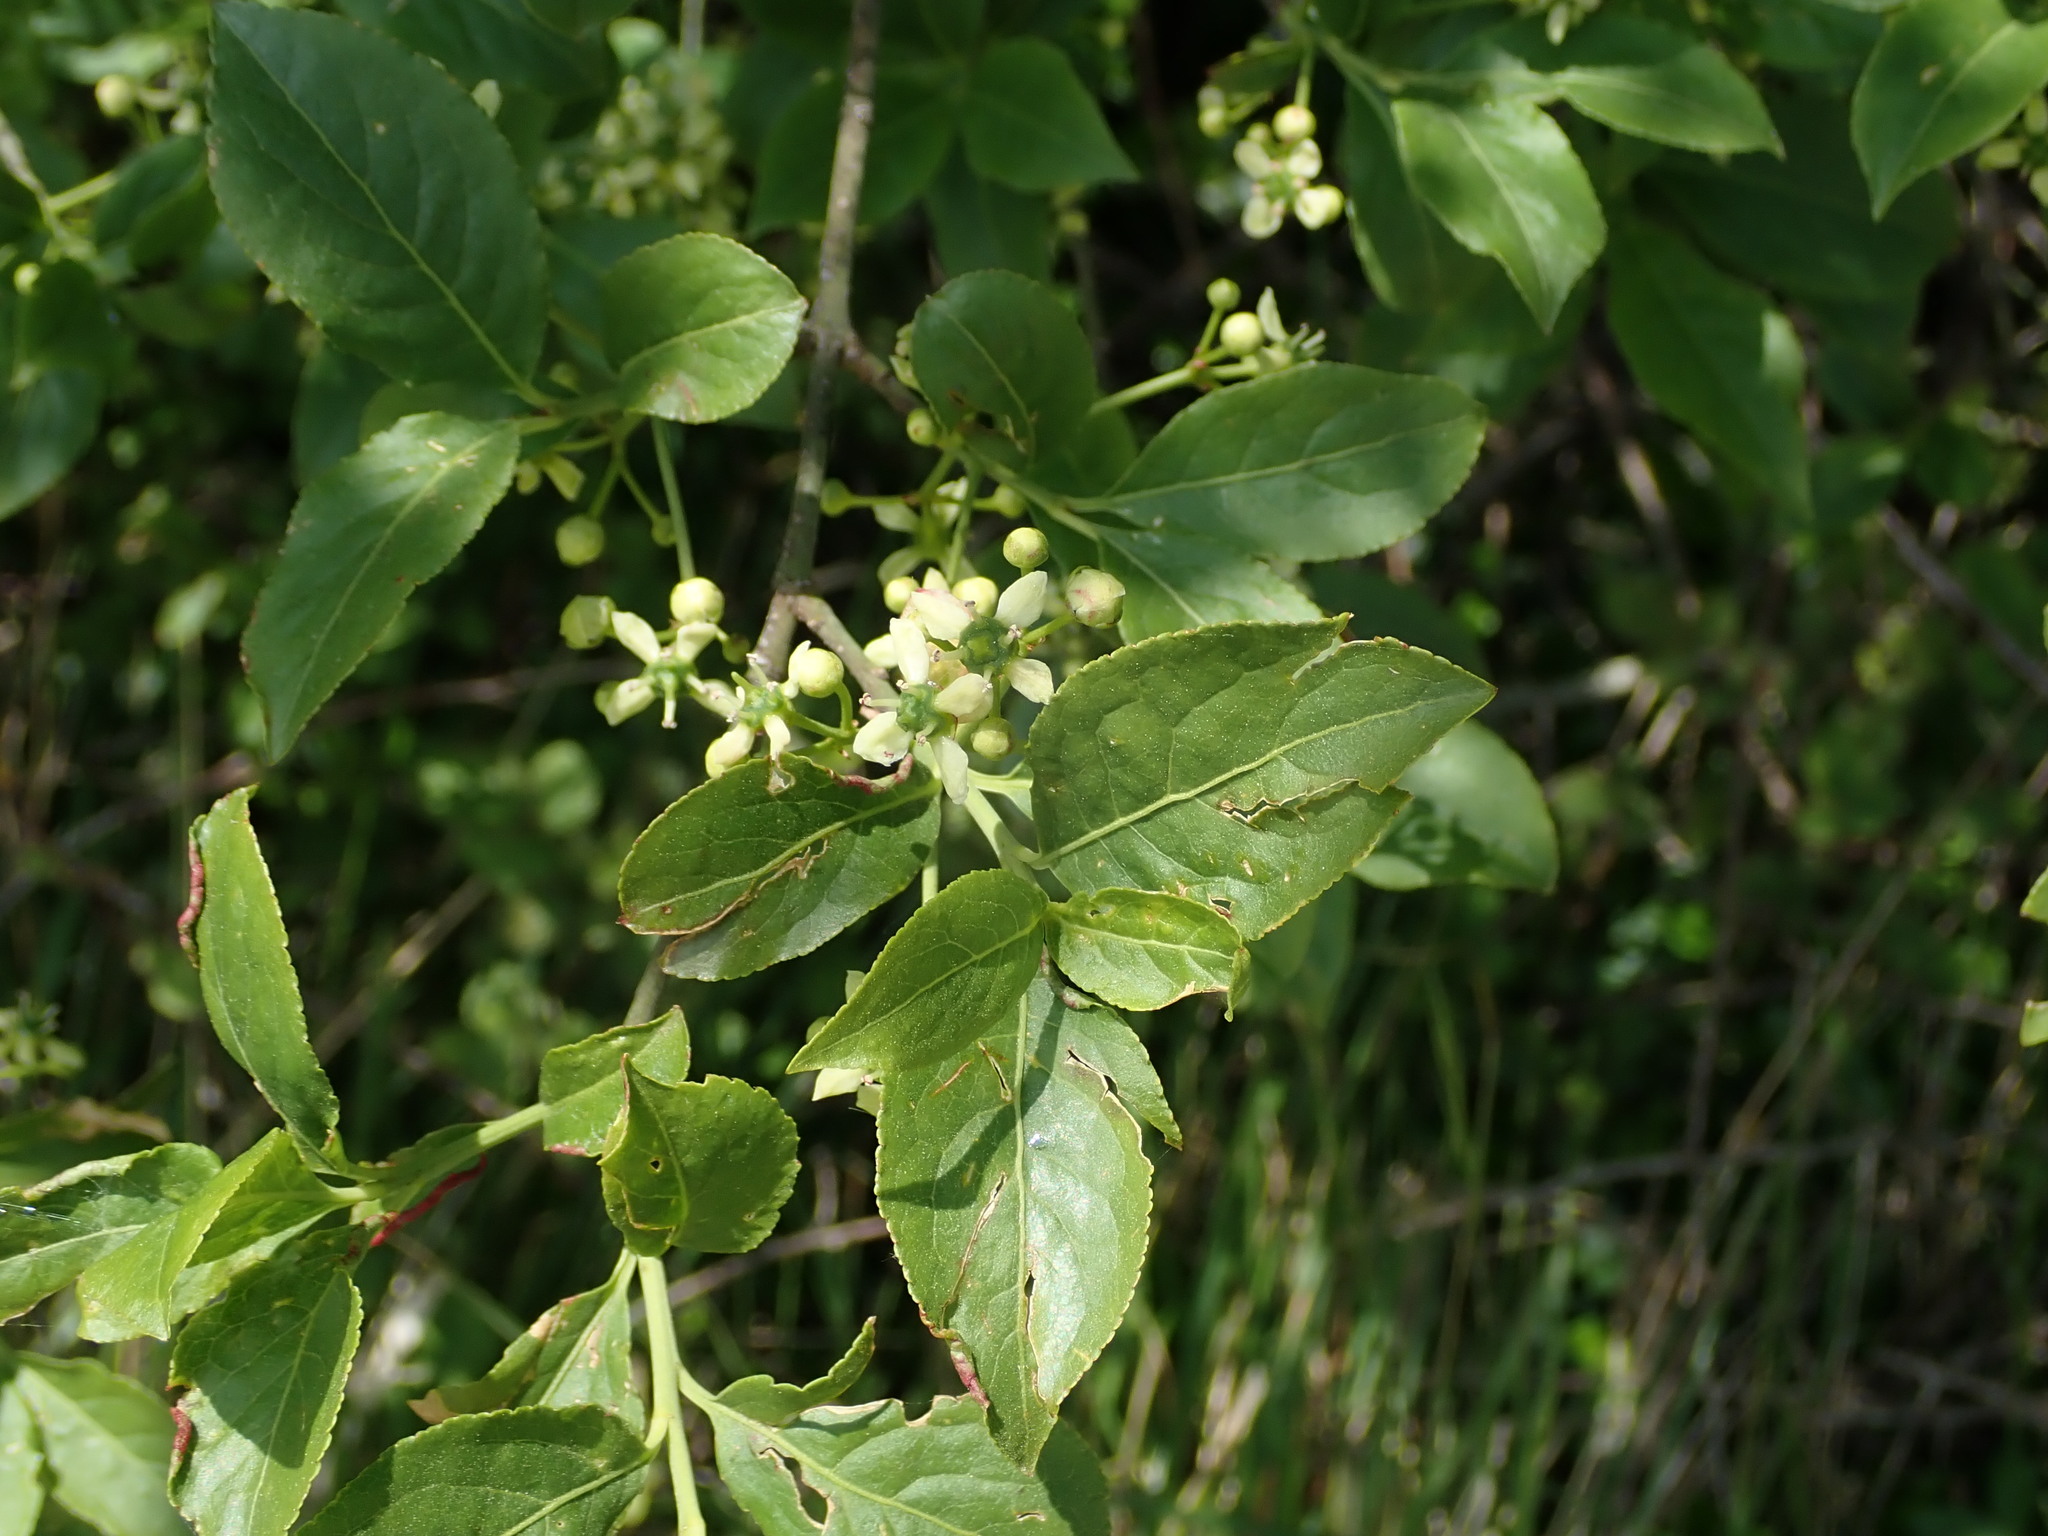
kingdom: Plantae
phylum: Tracheophyta
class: Magnoliopsida
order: Celastrales
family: Celastraceae
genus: Euonymus
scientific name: Euonymus europaeus
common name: Spindle
